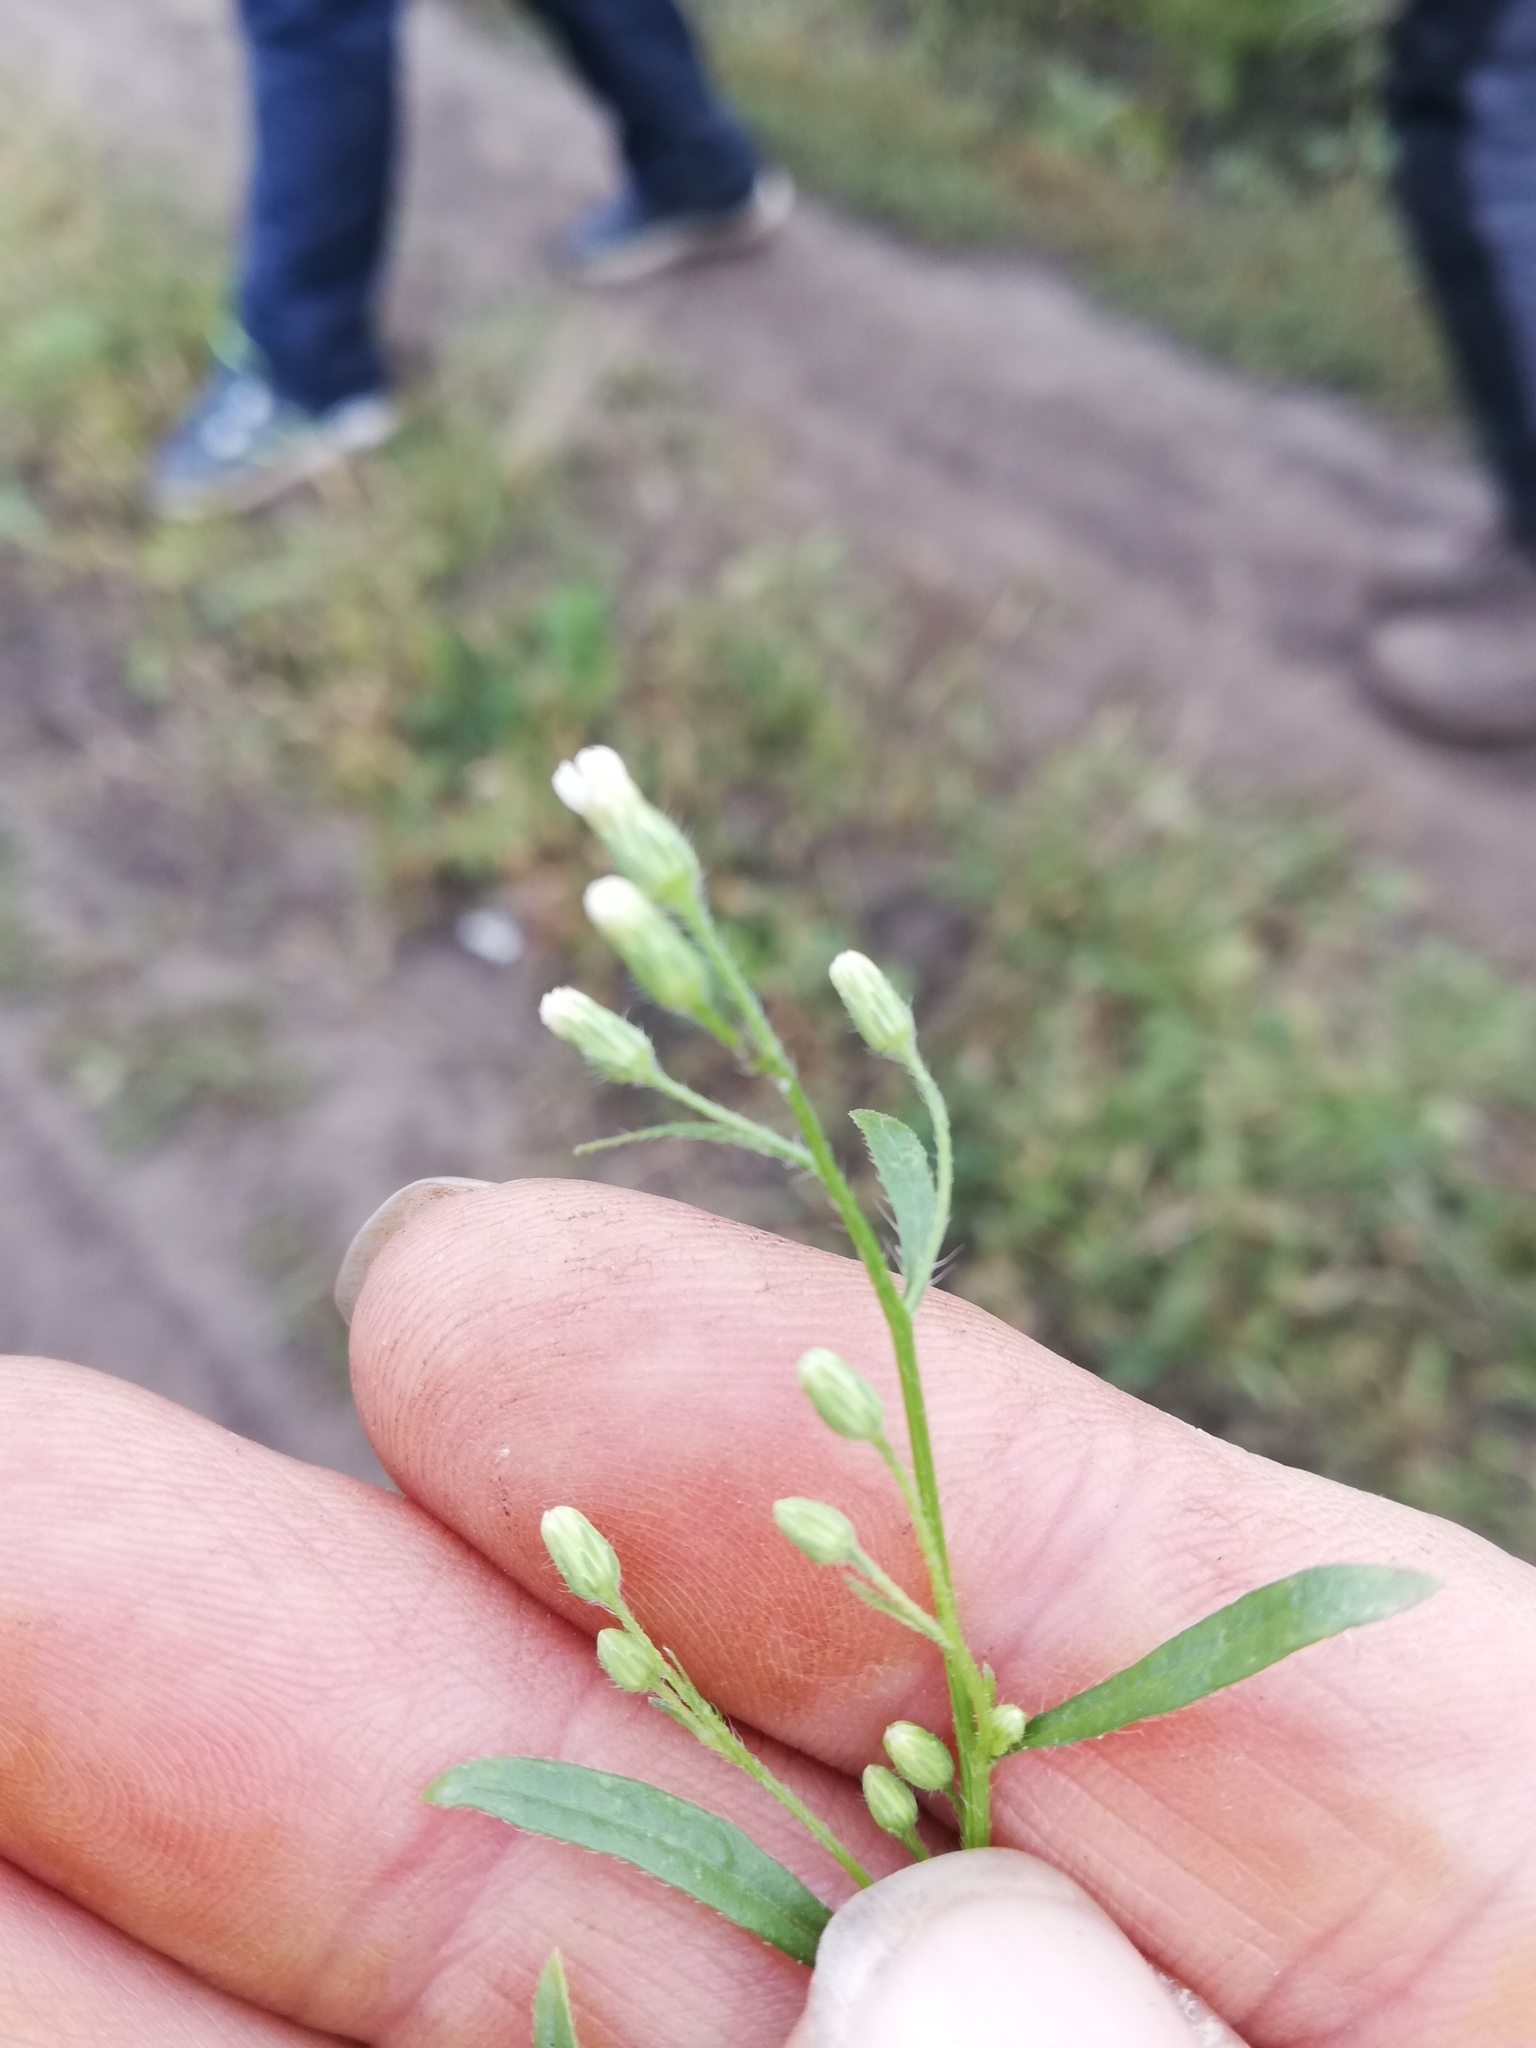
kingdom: Plantae
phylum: Tracheophyta
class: Magnoliopsida
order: Asterales
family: Asteraceae
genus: Erigeron
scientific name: Erigeron canadensis
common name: Canadian fleabane
